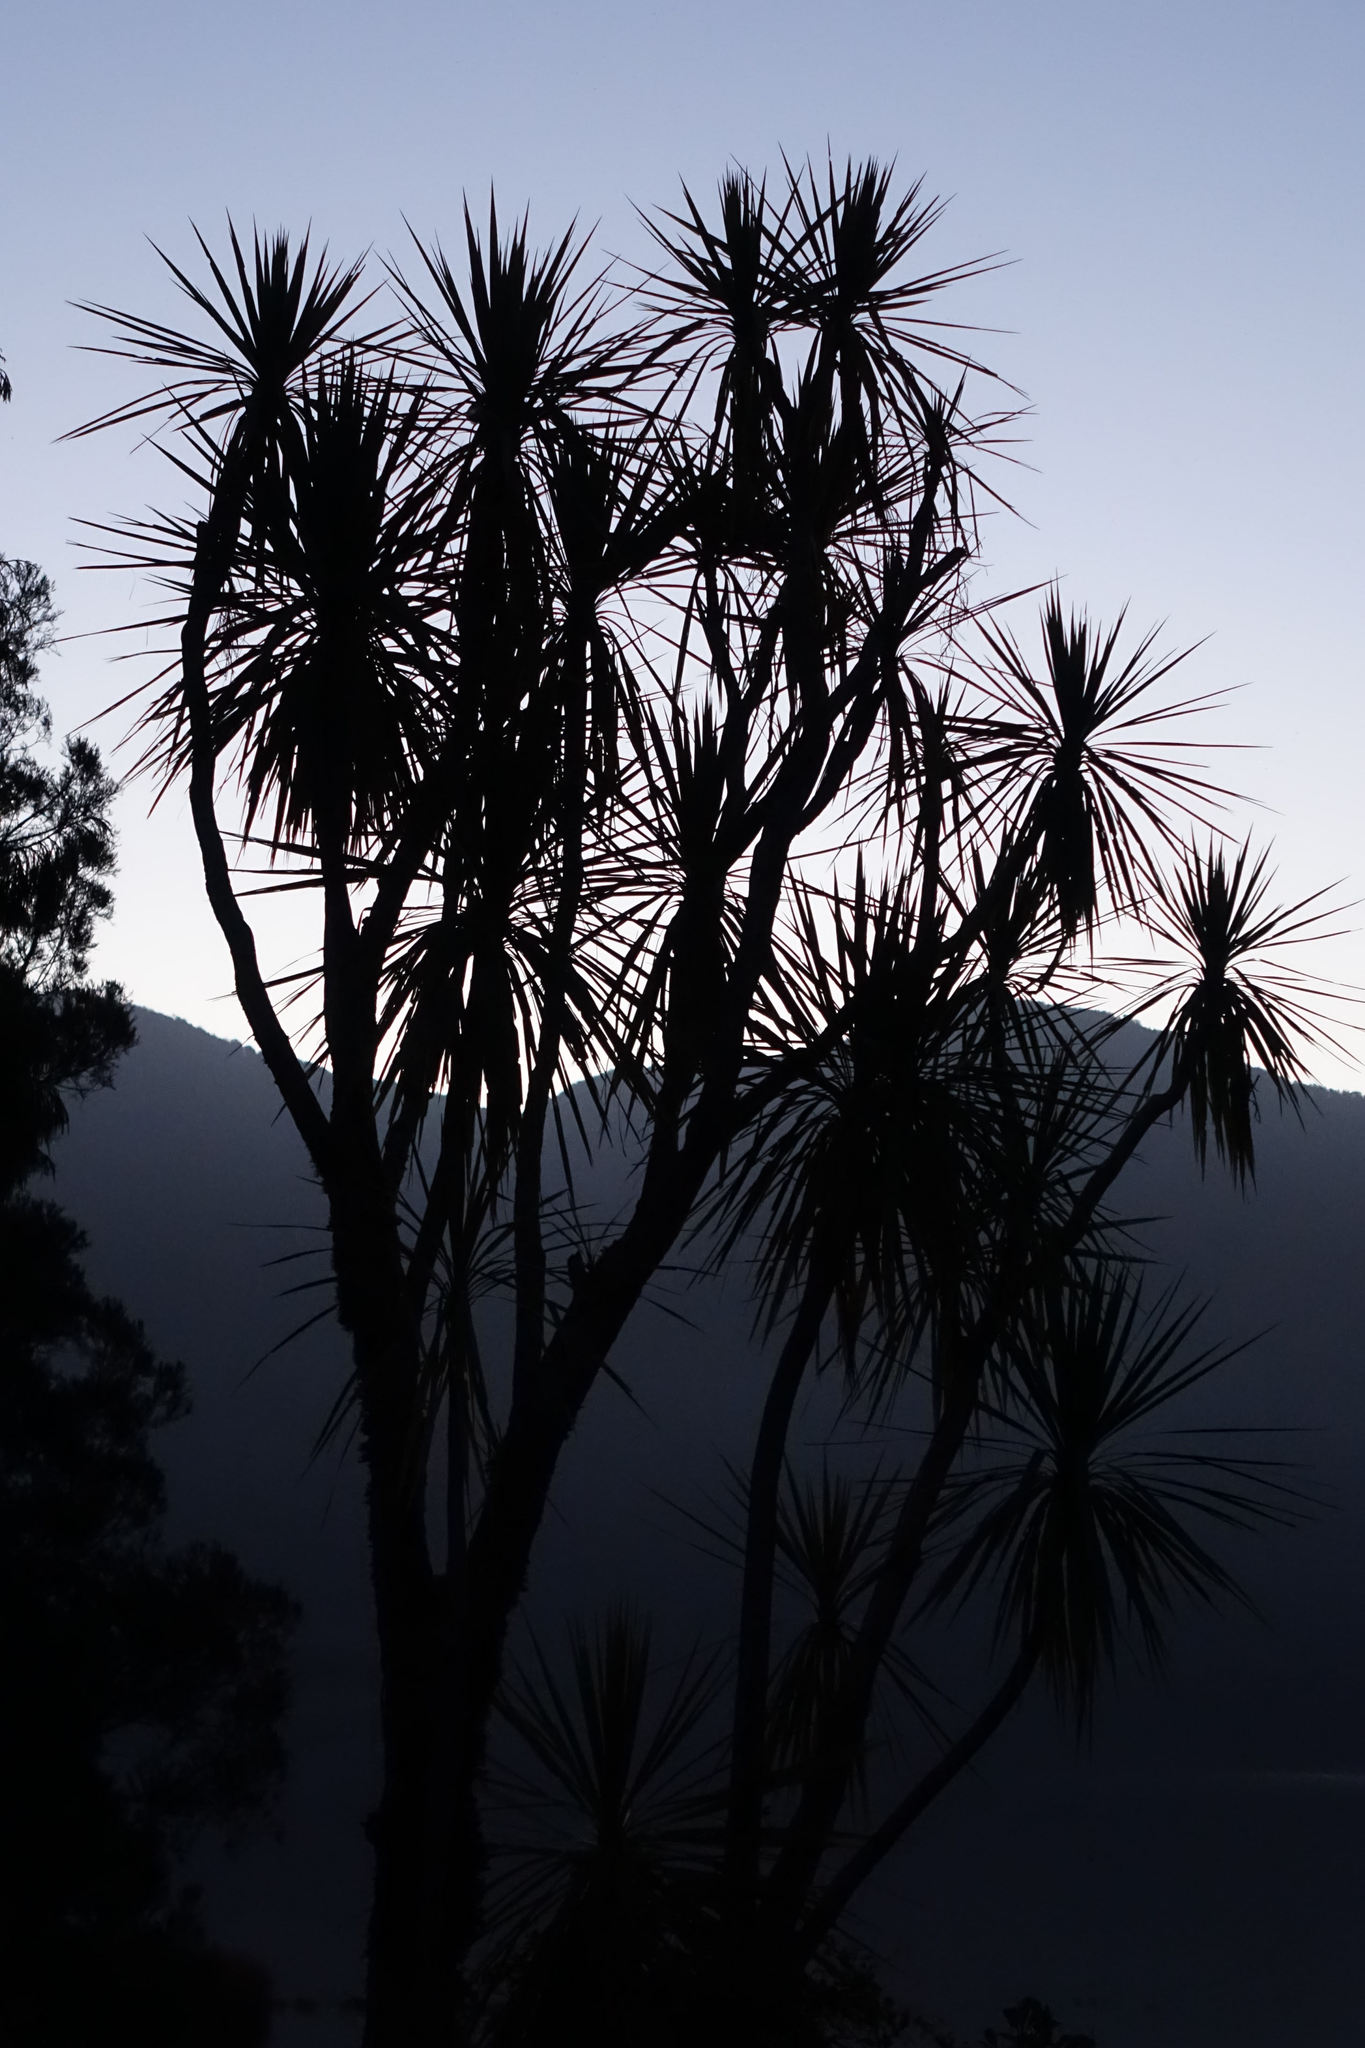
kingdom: Plantae
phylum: Tracheophyta
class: Liliopsida
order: Asparagales
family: Asparagaceae
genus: Cordyline
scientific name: Cordyline australis
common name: Cabbage-palm
